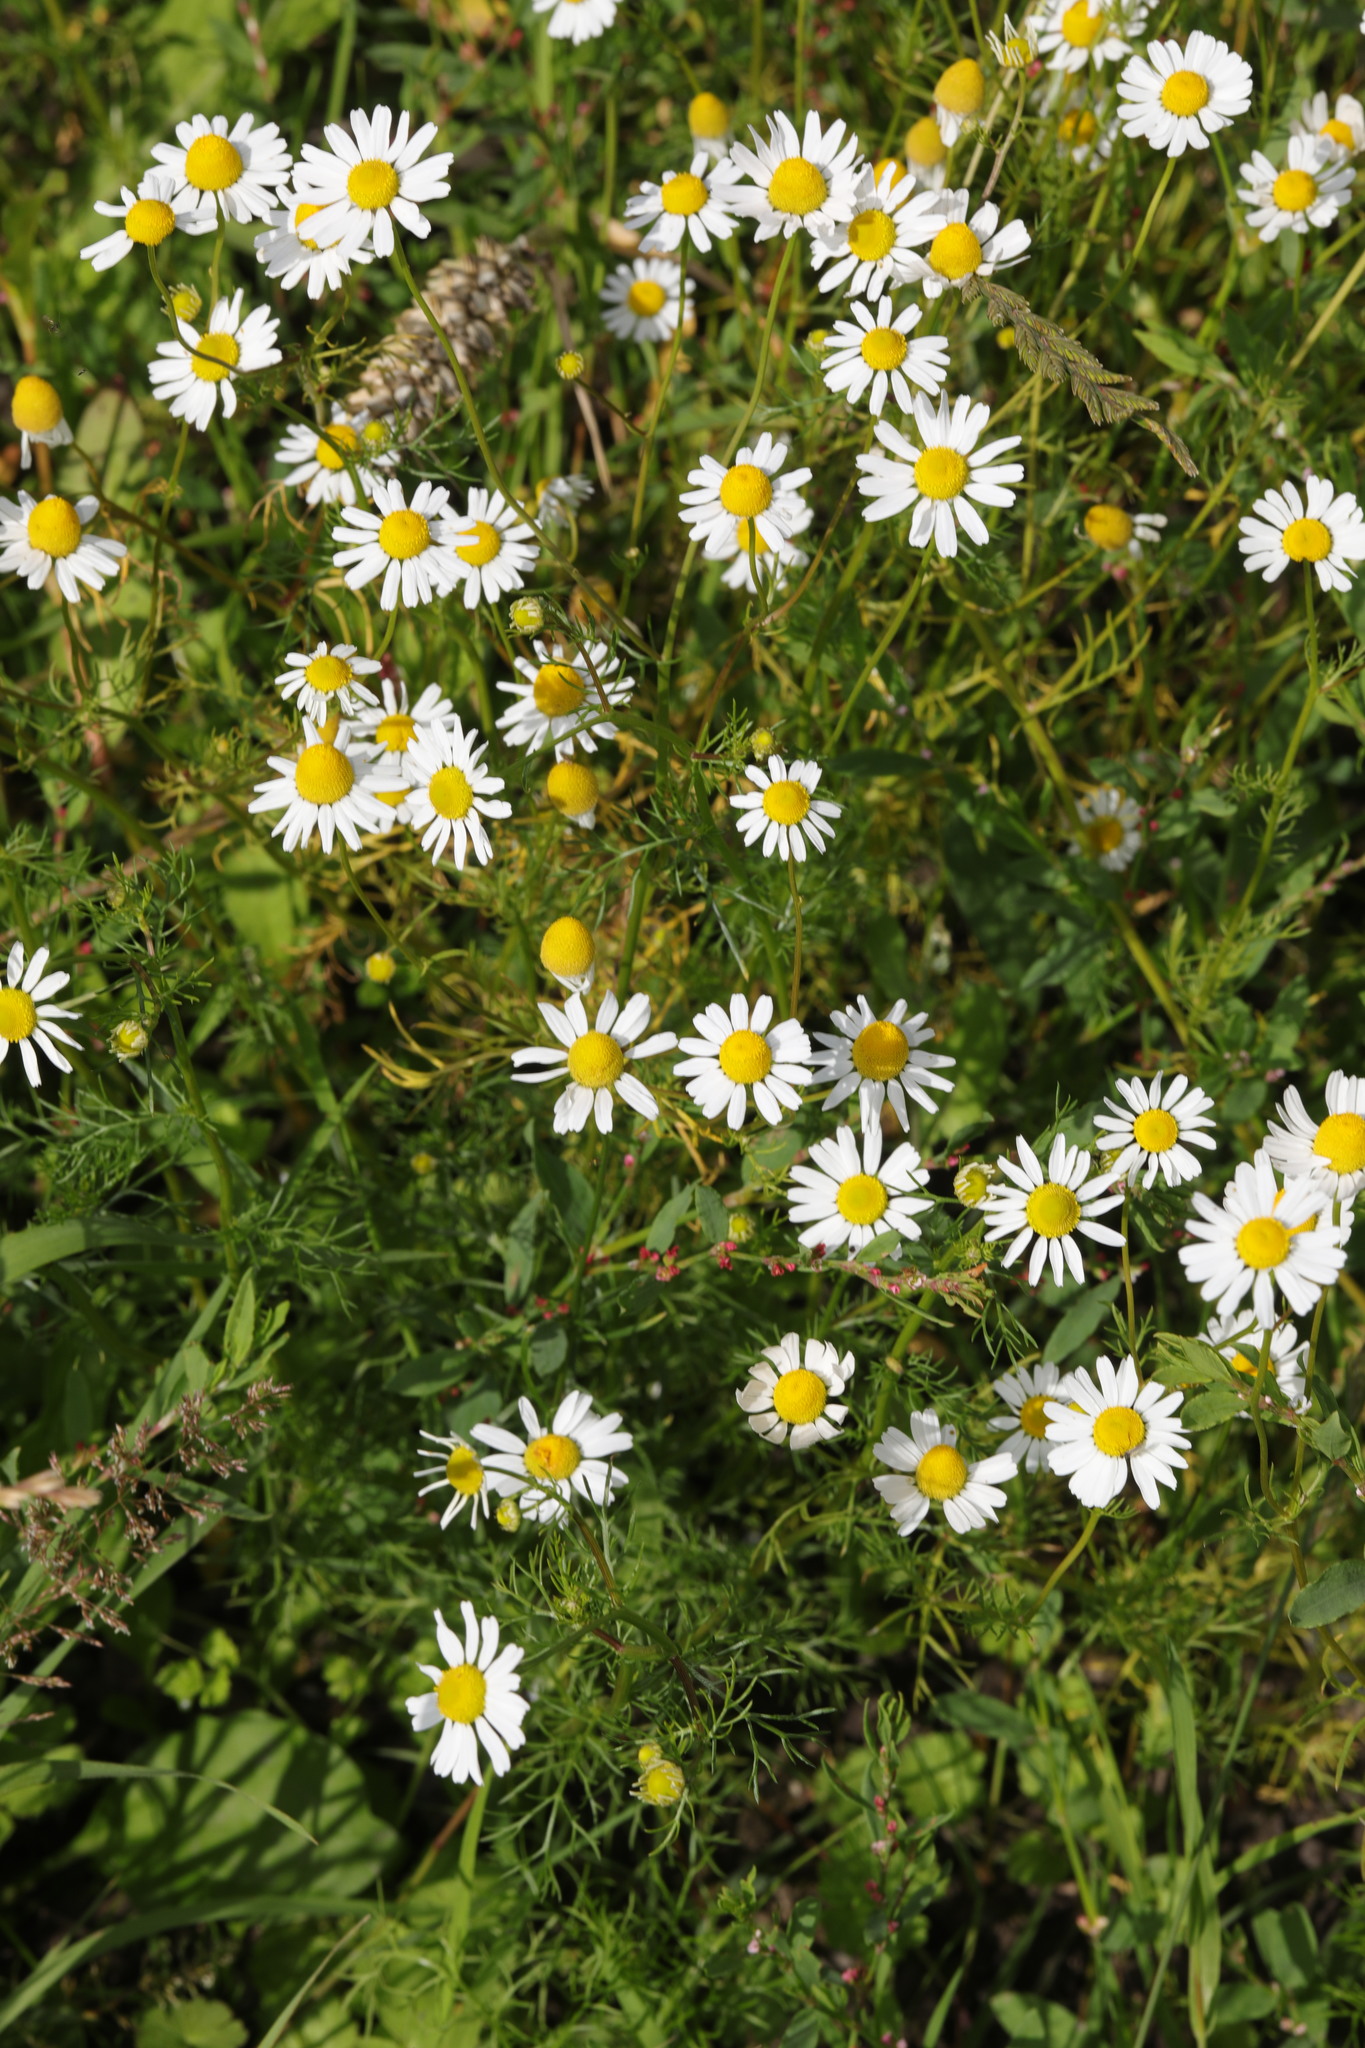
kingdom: Plantae
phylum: Tracheophyta
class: Magnoliopsida
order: Asterales
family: Asteraceae
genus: Matricaria
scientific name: Matricaria chamomilla
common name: Scented mayweed
